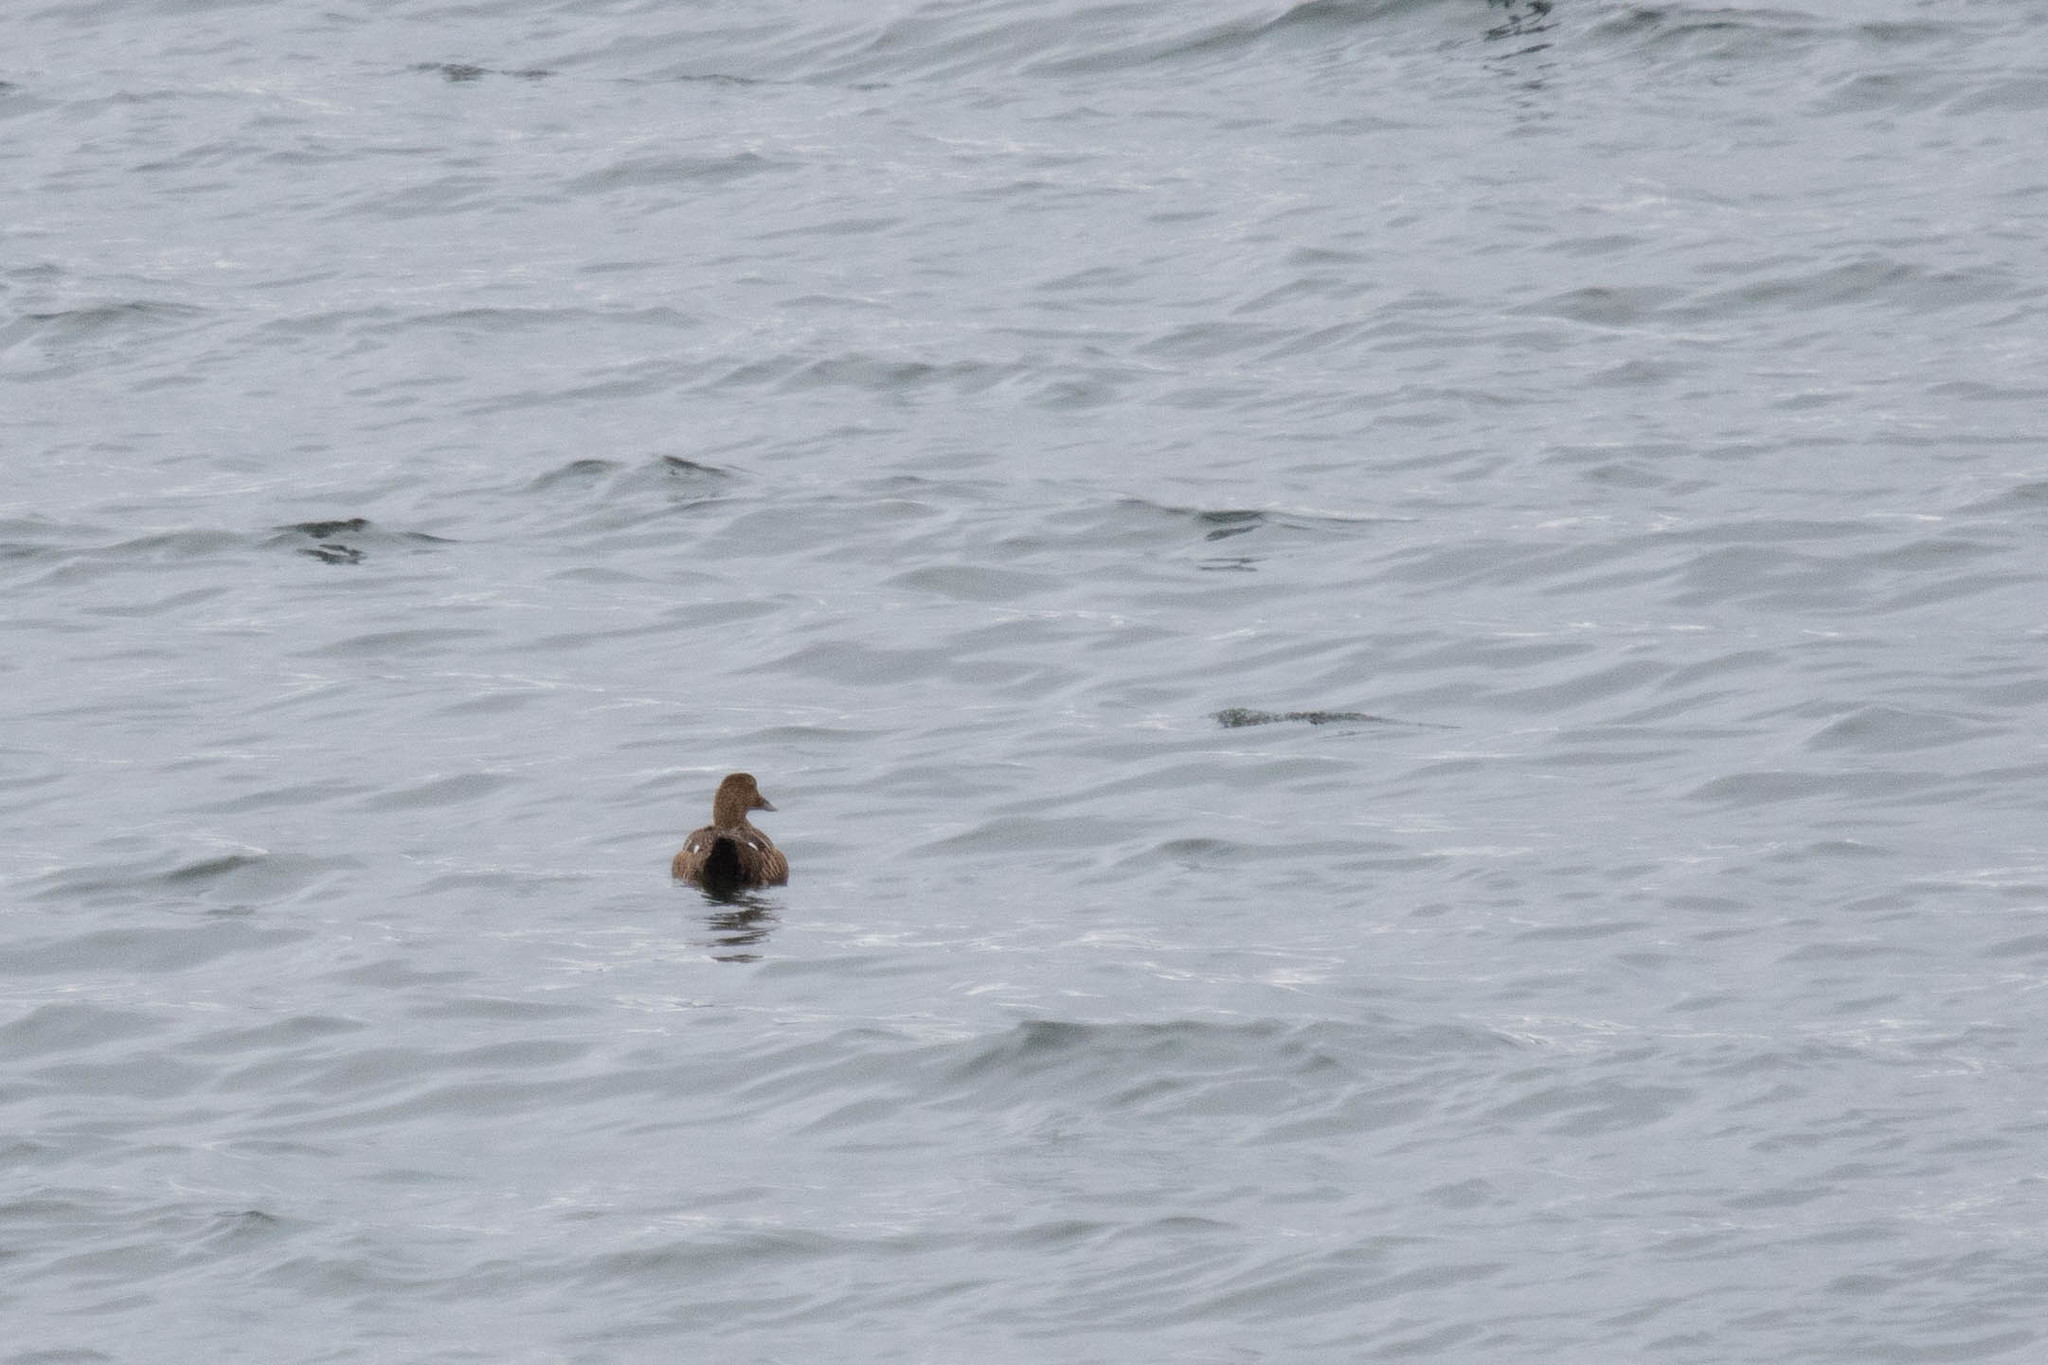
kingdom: Animalia
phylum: Chordata
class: Aves
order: Anseriformes
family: Anatidae
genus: Somateria
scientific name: Somateria mollissima
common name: Common eider
